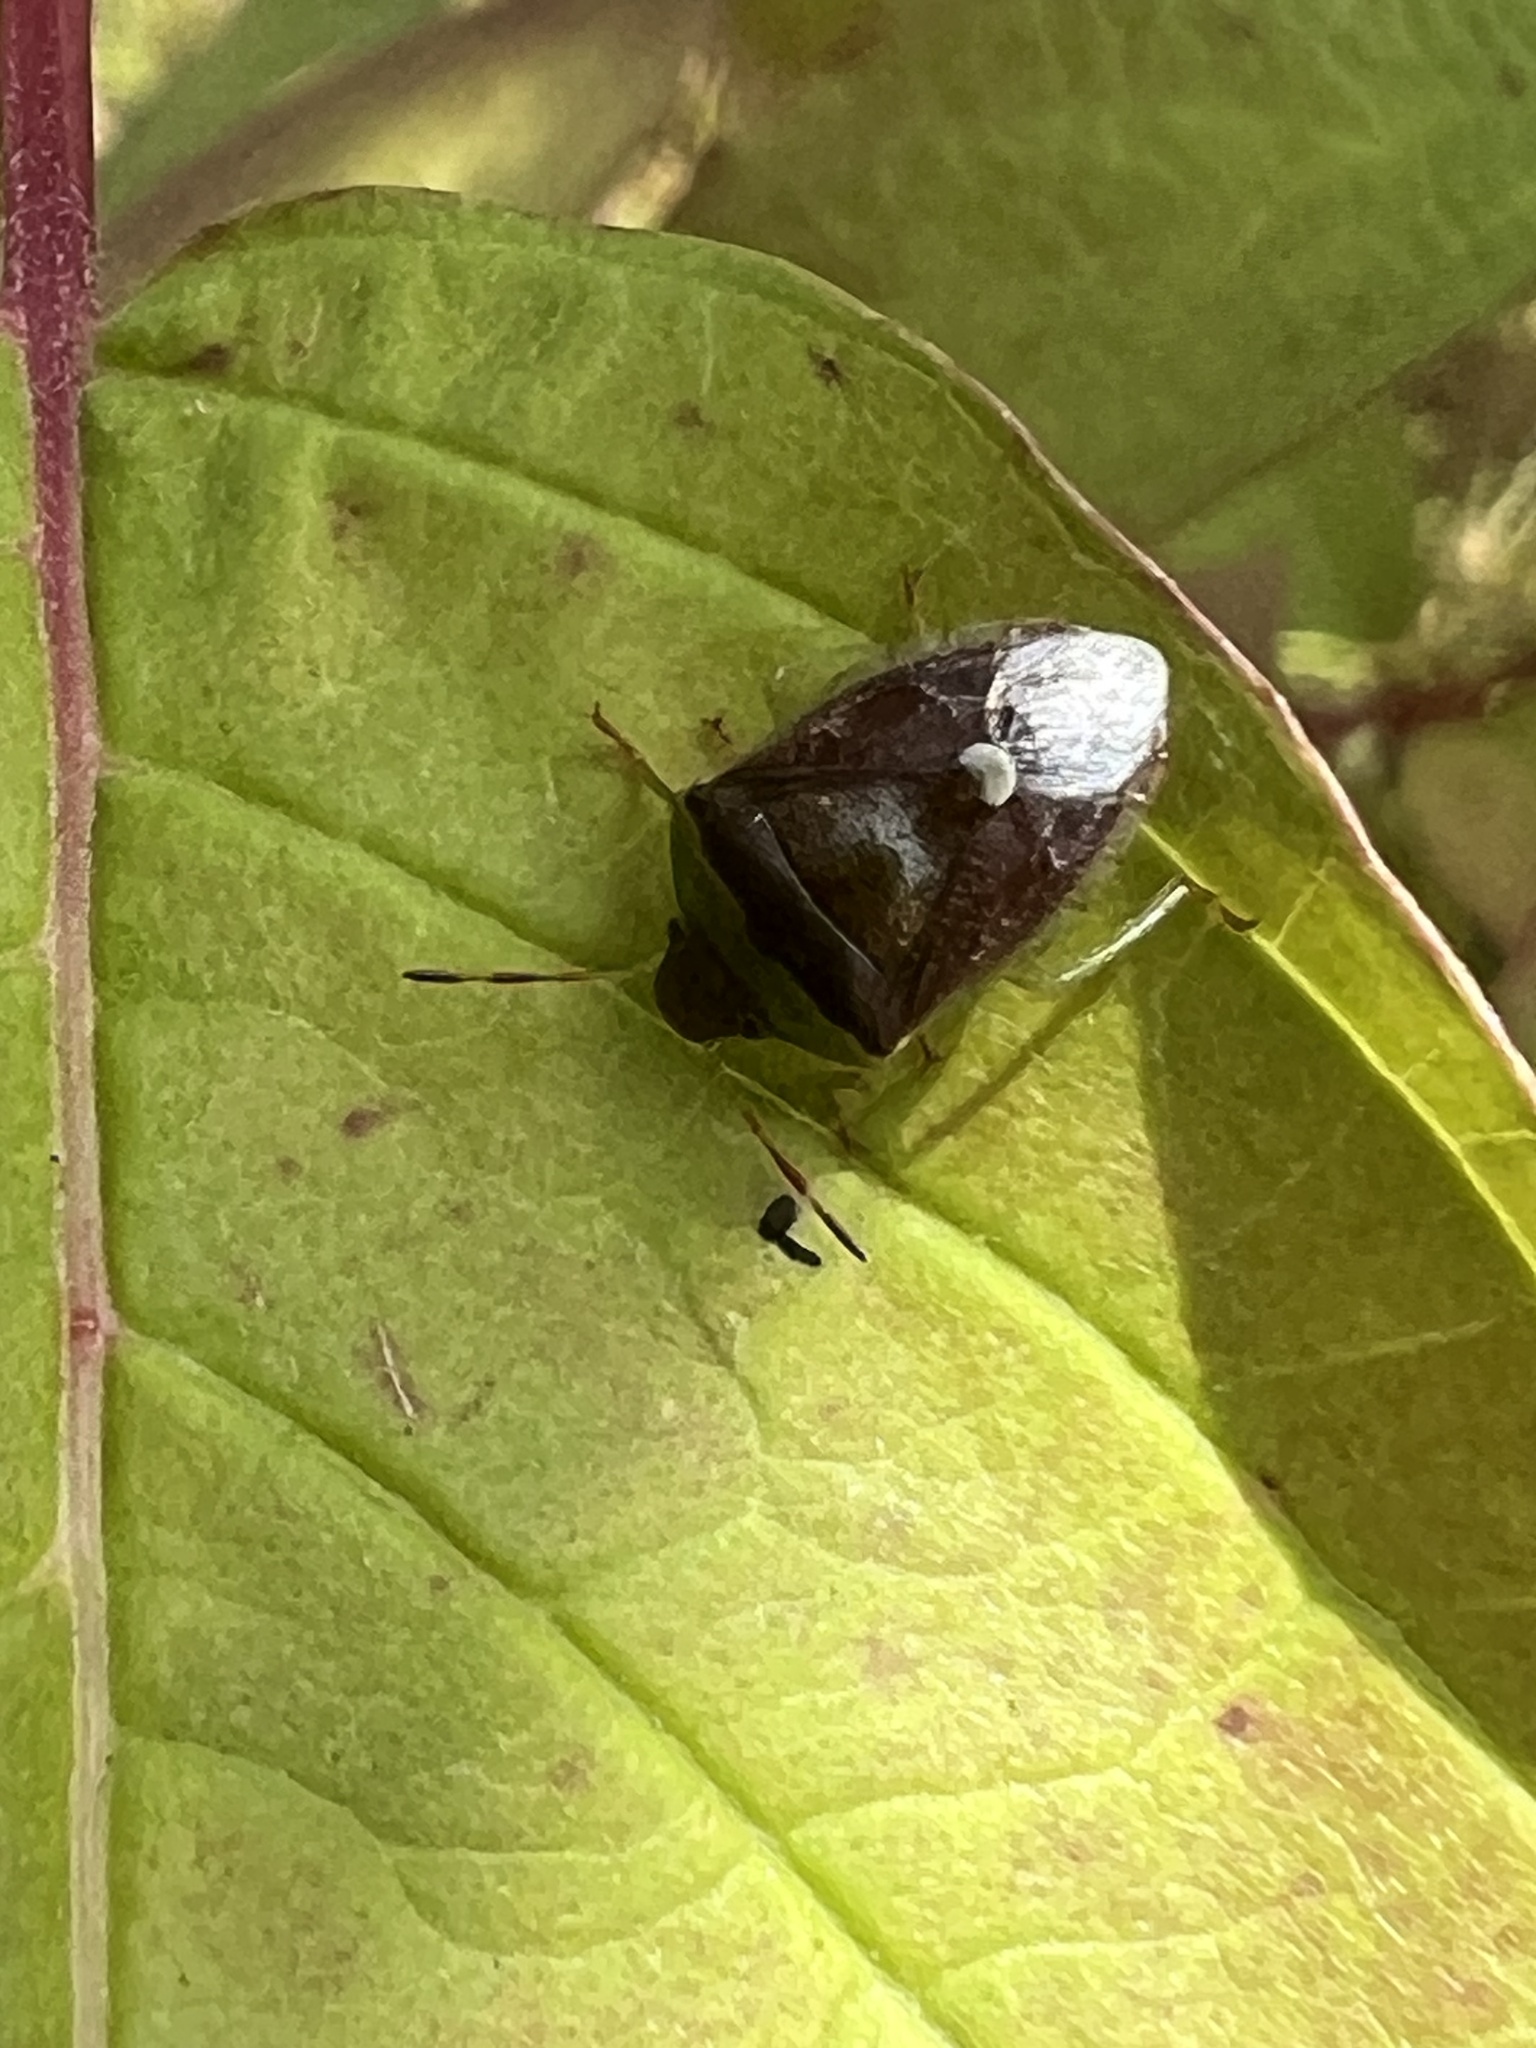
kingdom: Animalia
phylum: Arthropoda
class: Insecta
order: Hemiptera
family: Pentatomidae
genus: Banasa
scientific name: Banasa dimidiata
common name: Green burgundy stink bug
